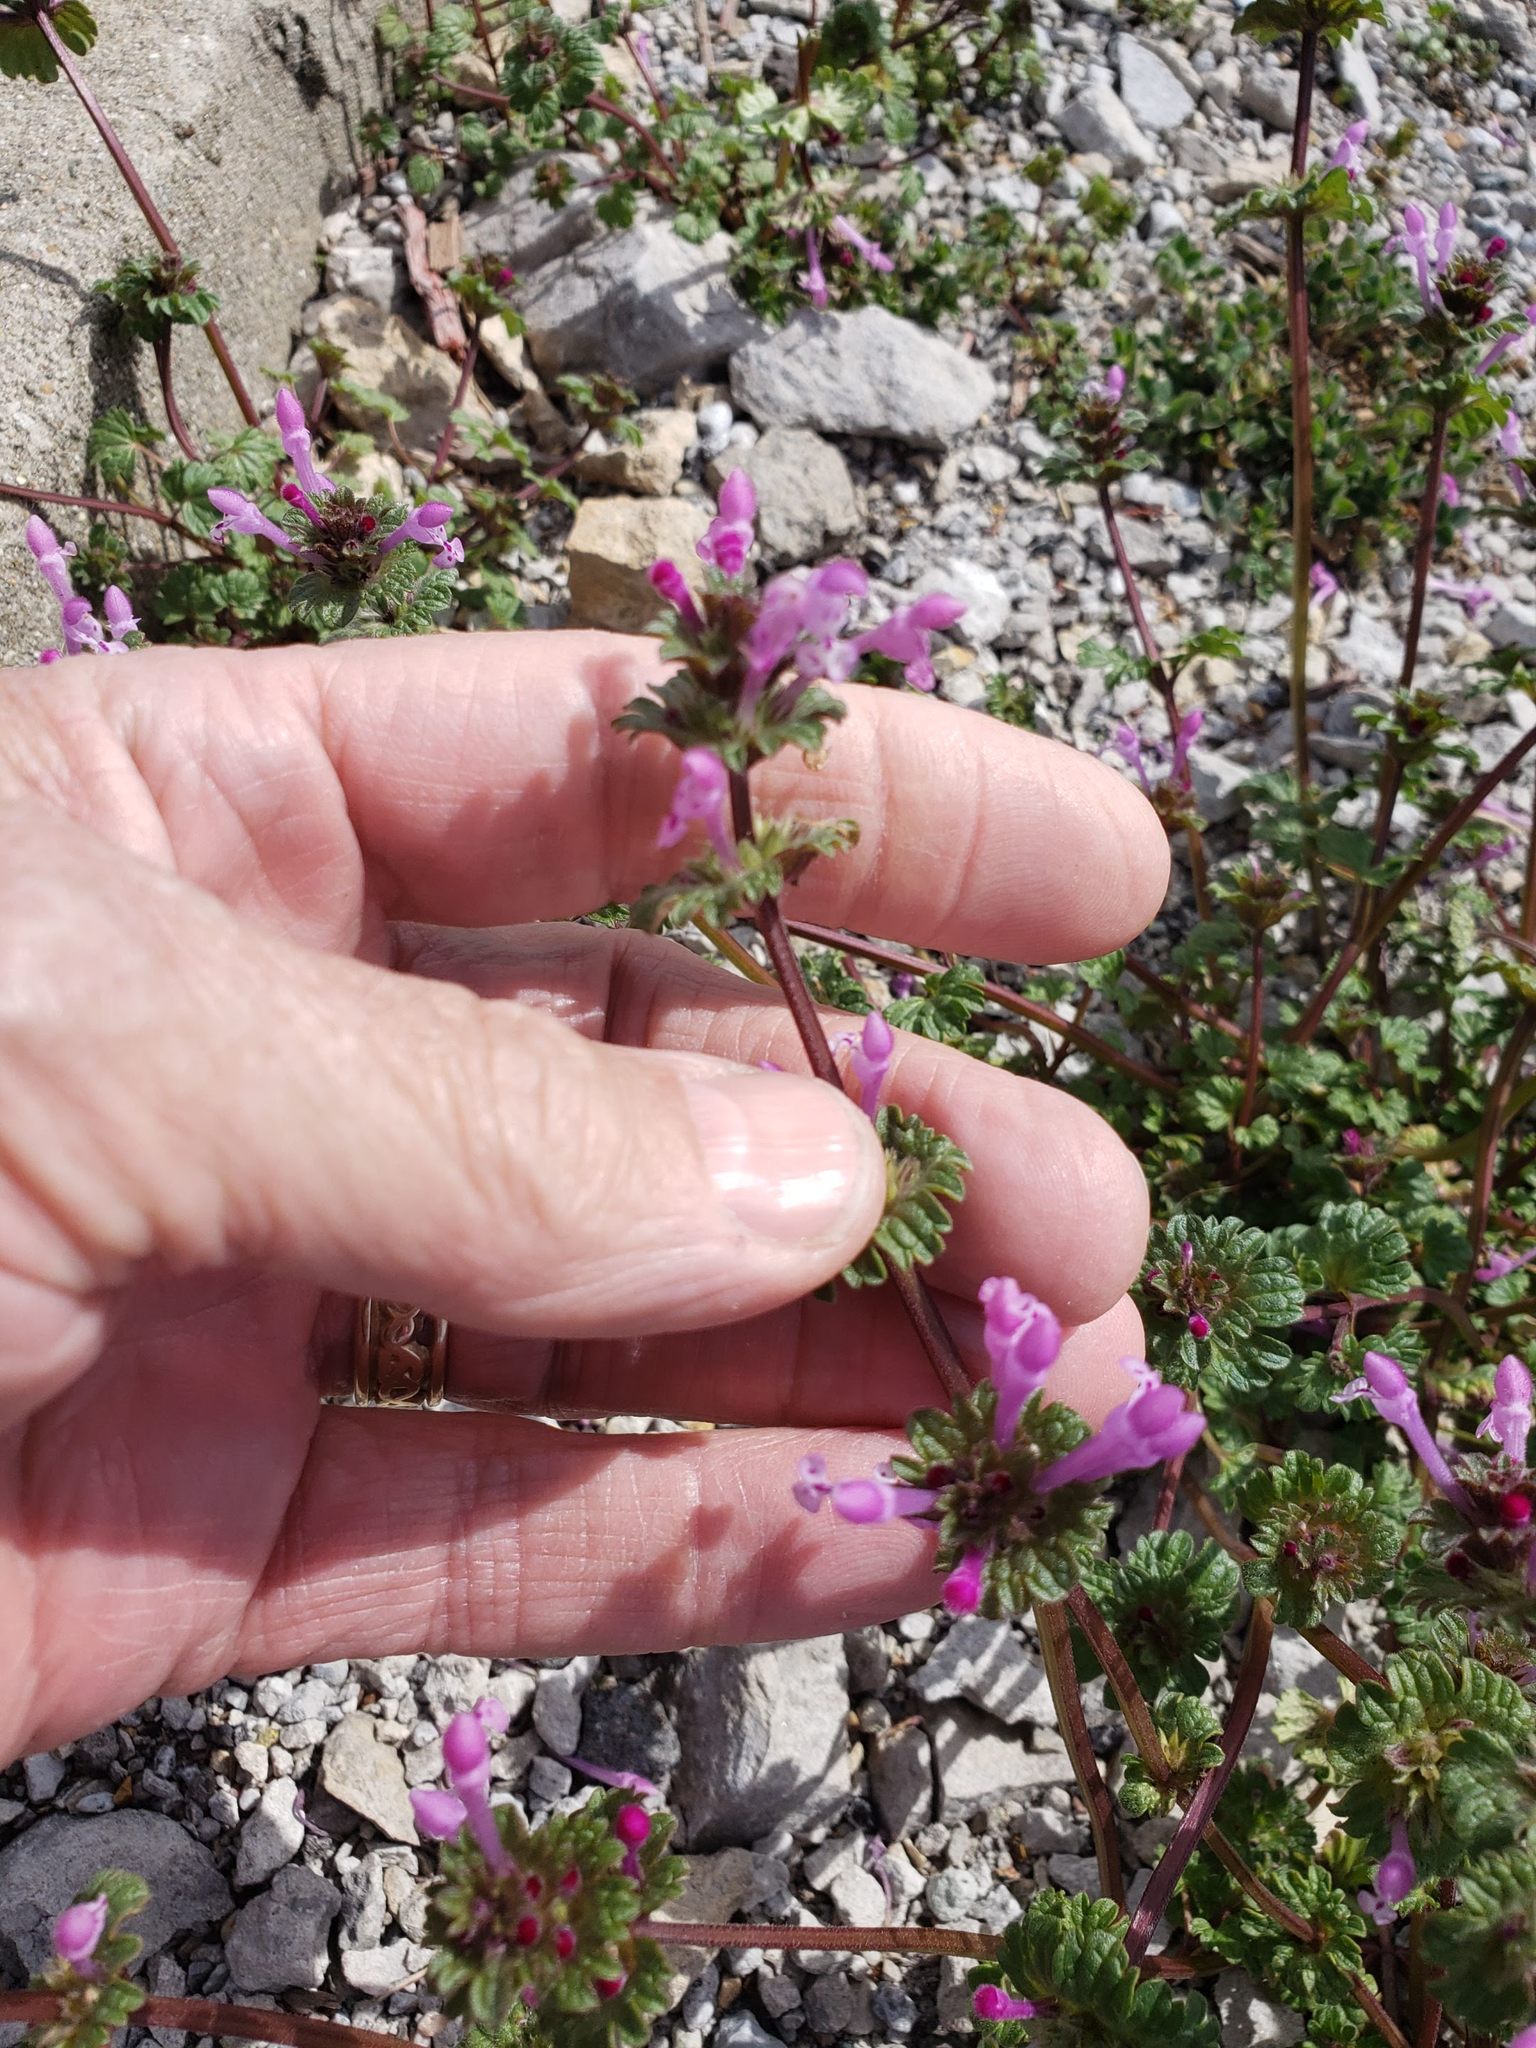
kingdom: Plantae
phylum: Tracheophyta
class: Magnoliopsida
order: Lamiales
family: Lamiaceae
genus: Lamium
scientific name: Lamium amplexicaule
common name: Henbit dead-nettle
